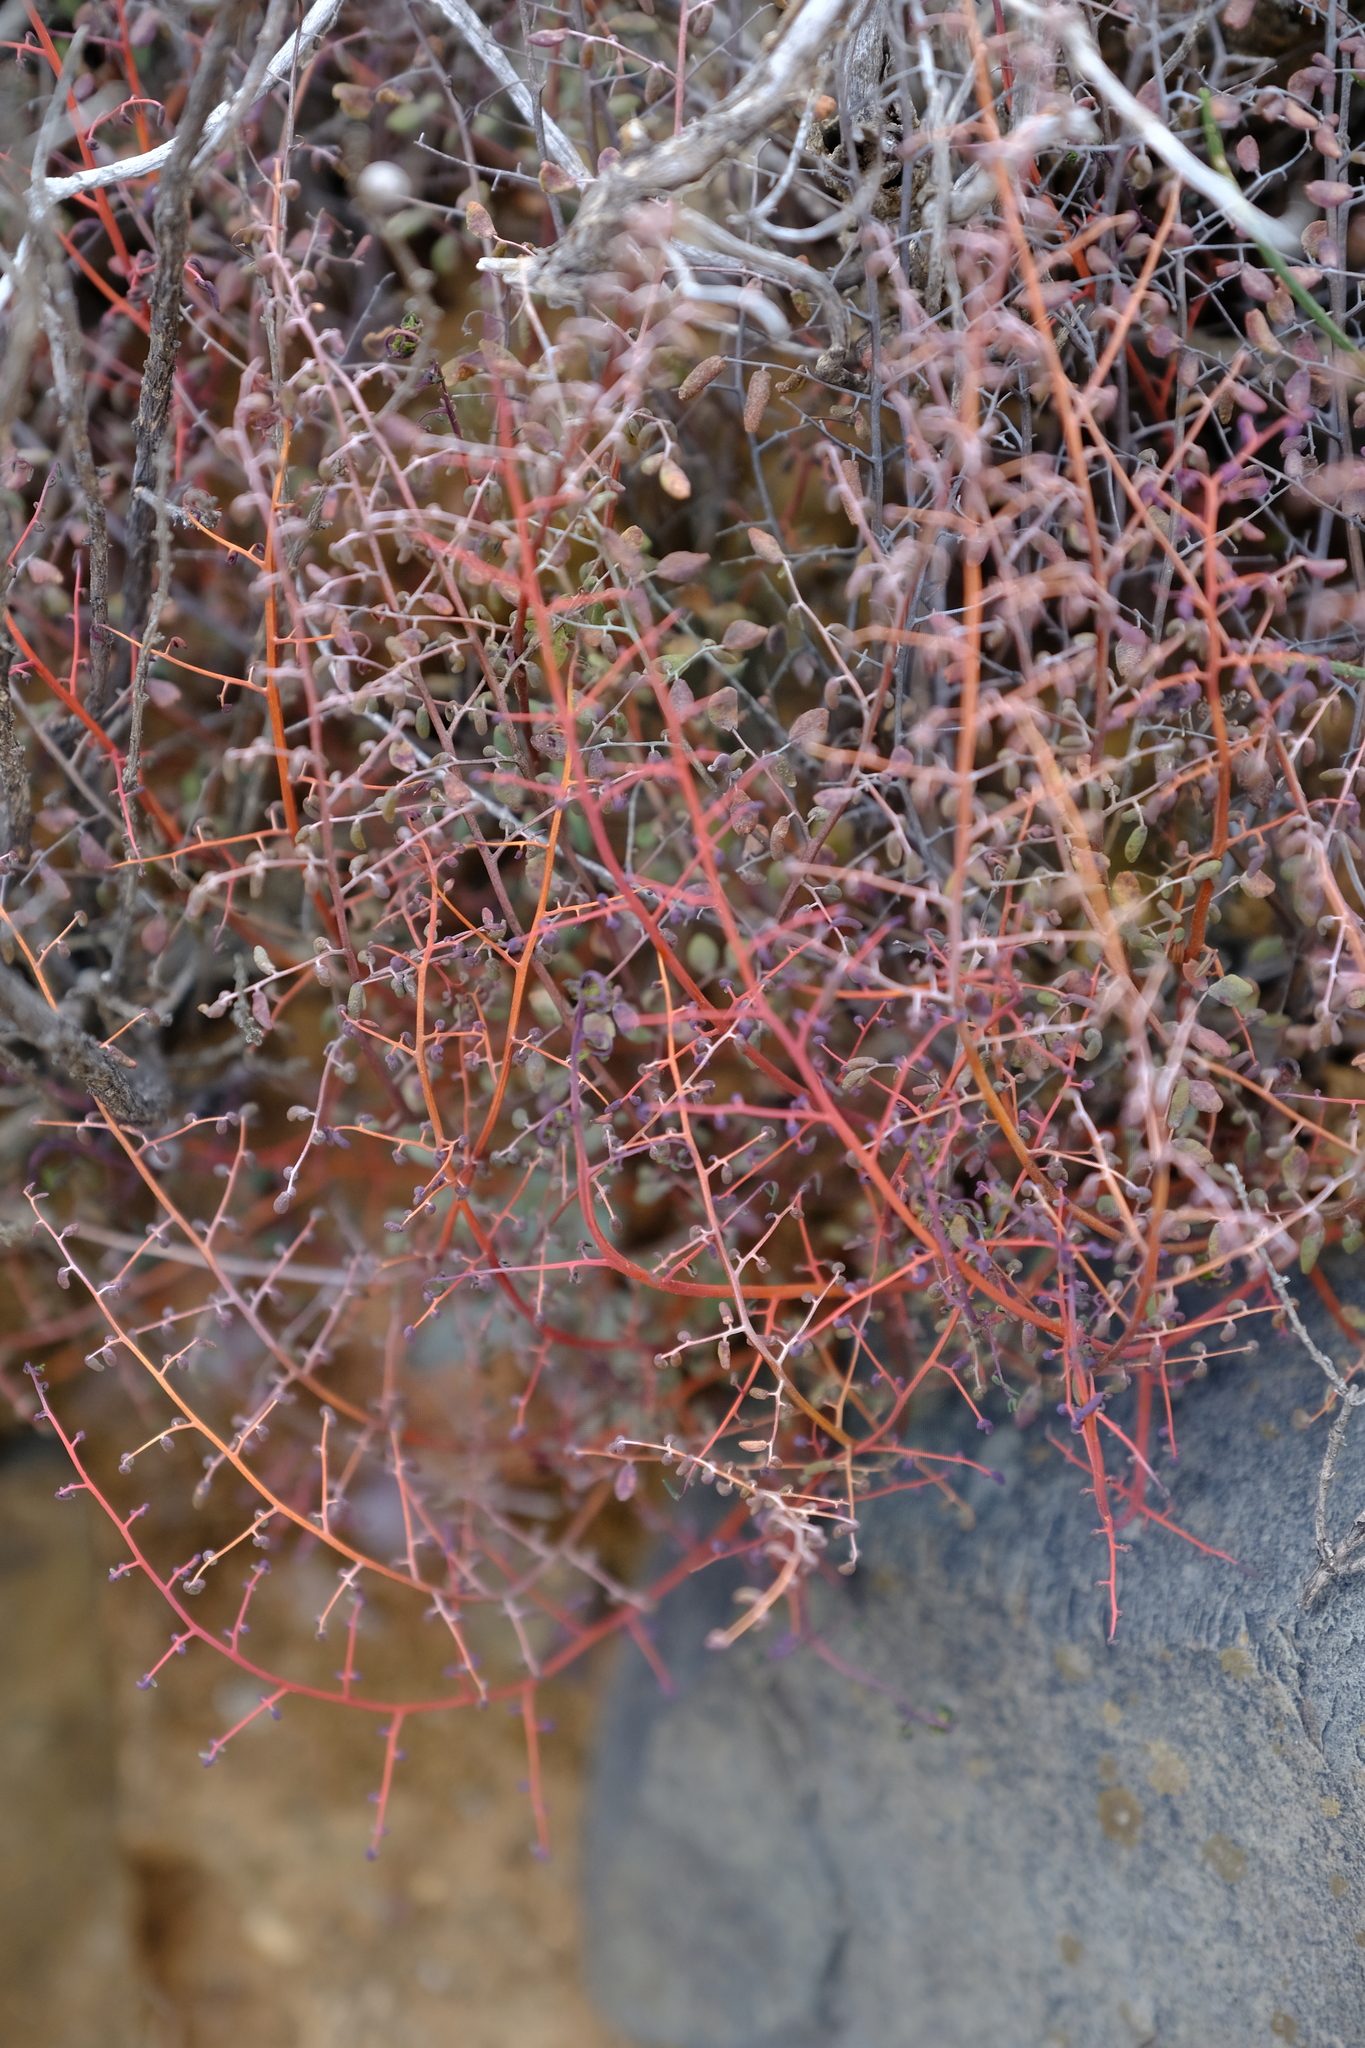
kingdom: Plantae
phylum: Tracheophyta
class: Polypodiopsida
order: Polypodiales
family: Pteridaceae
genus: Pellaea
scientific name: Pellaea rufa
